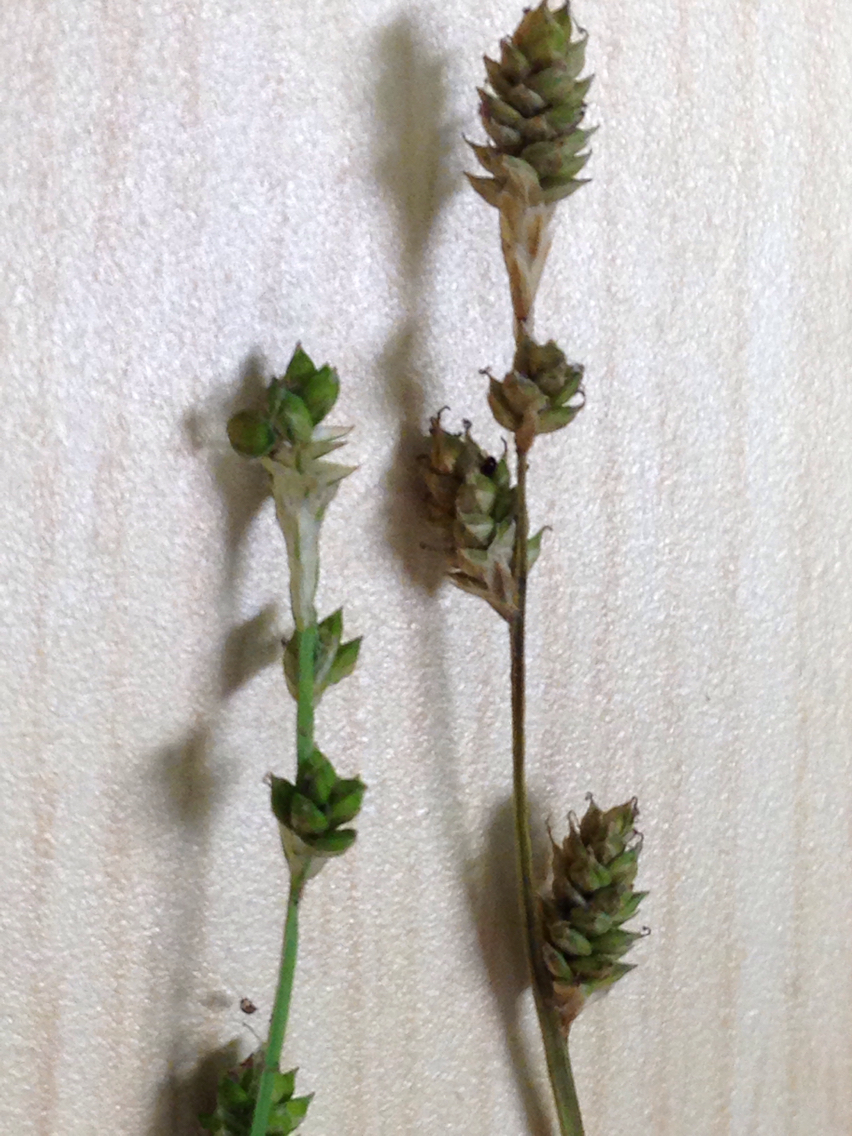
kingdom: Plantae
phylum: Tracheophyta
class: Liliopsida
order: Poales
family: Cyperaceae
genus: Carex
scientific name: Carex canescens
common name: White sedge
